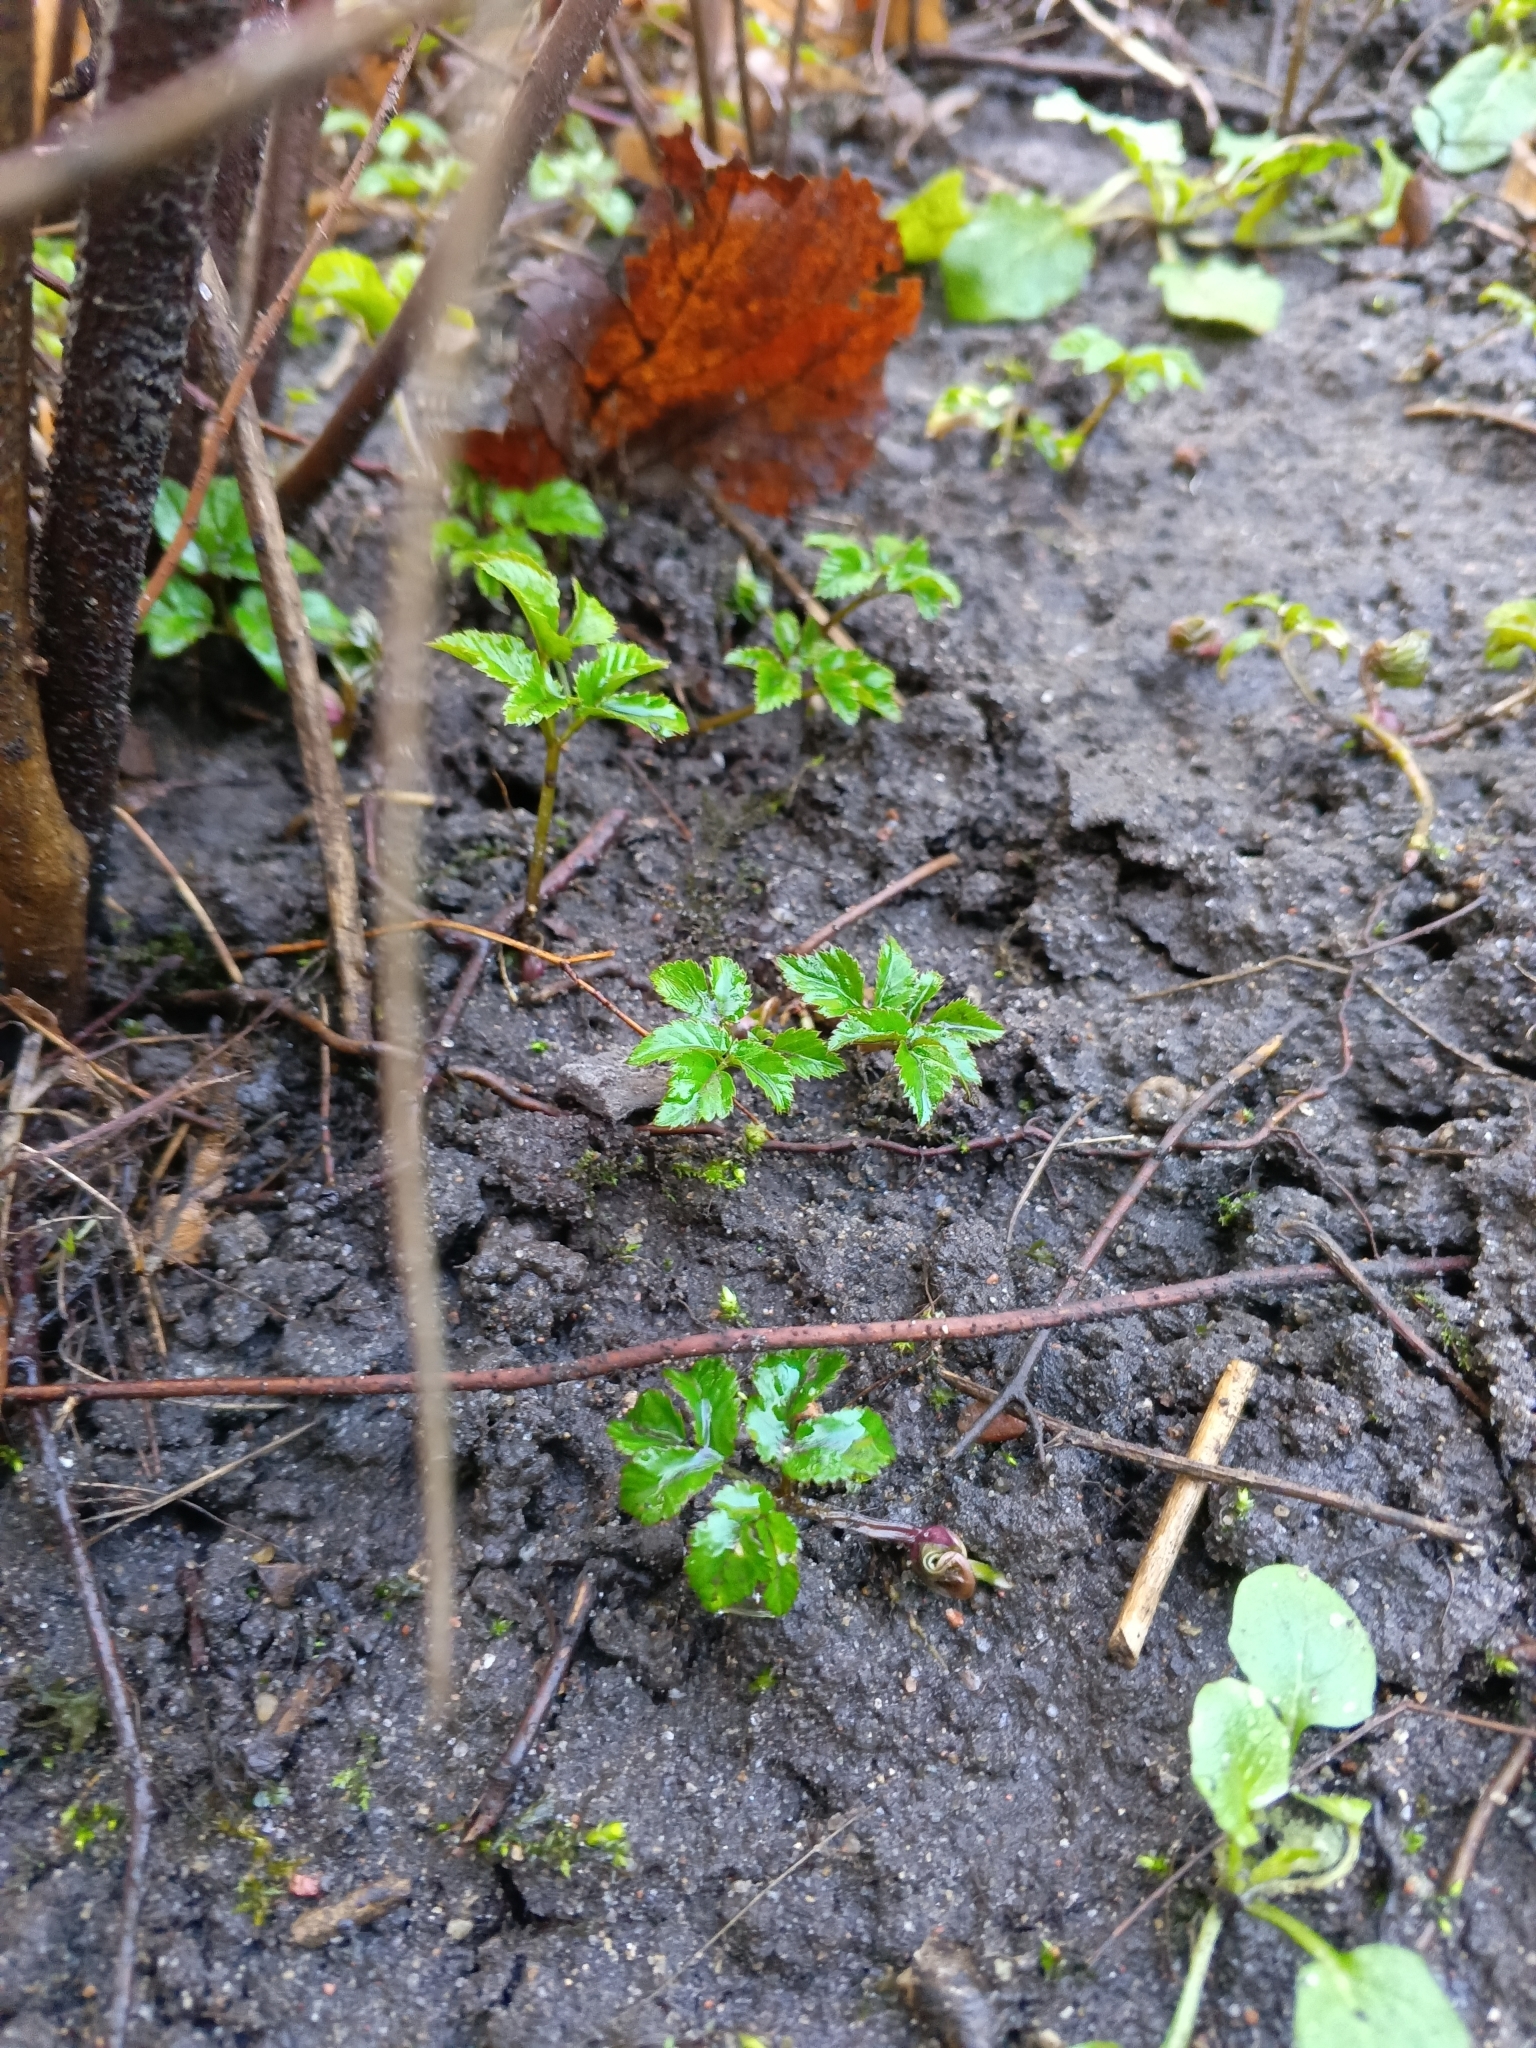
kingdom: Plantae
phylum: Tracheophyta
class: Magnoliopsida
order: Apiales
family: Apiaceae
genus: Aegopodium
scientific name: Aegopodium podagraria
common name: Ground-elder
